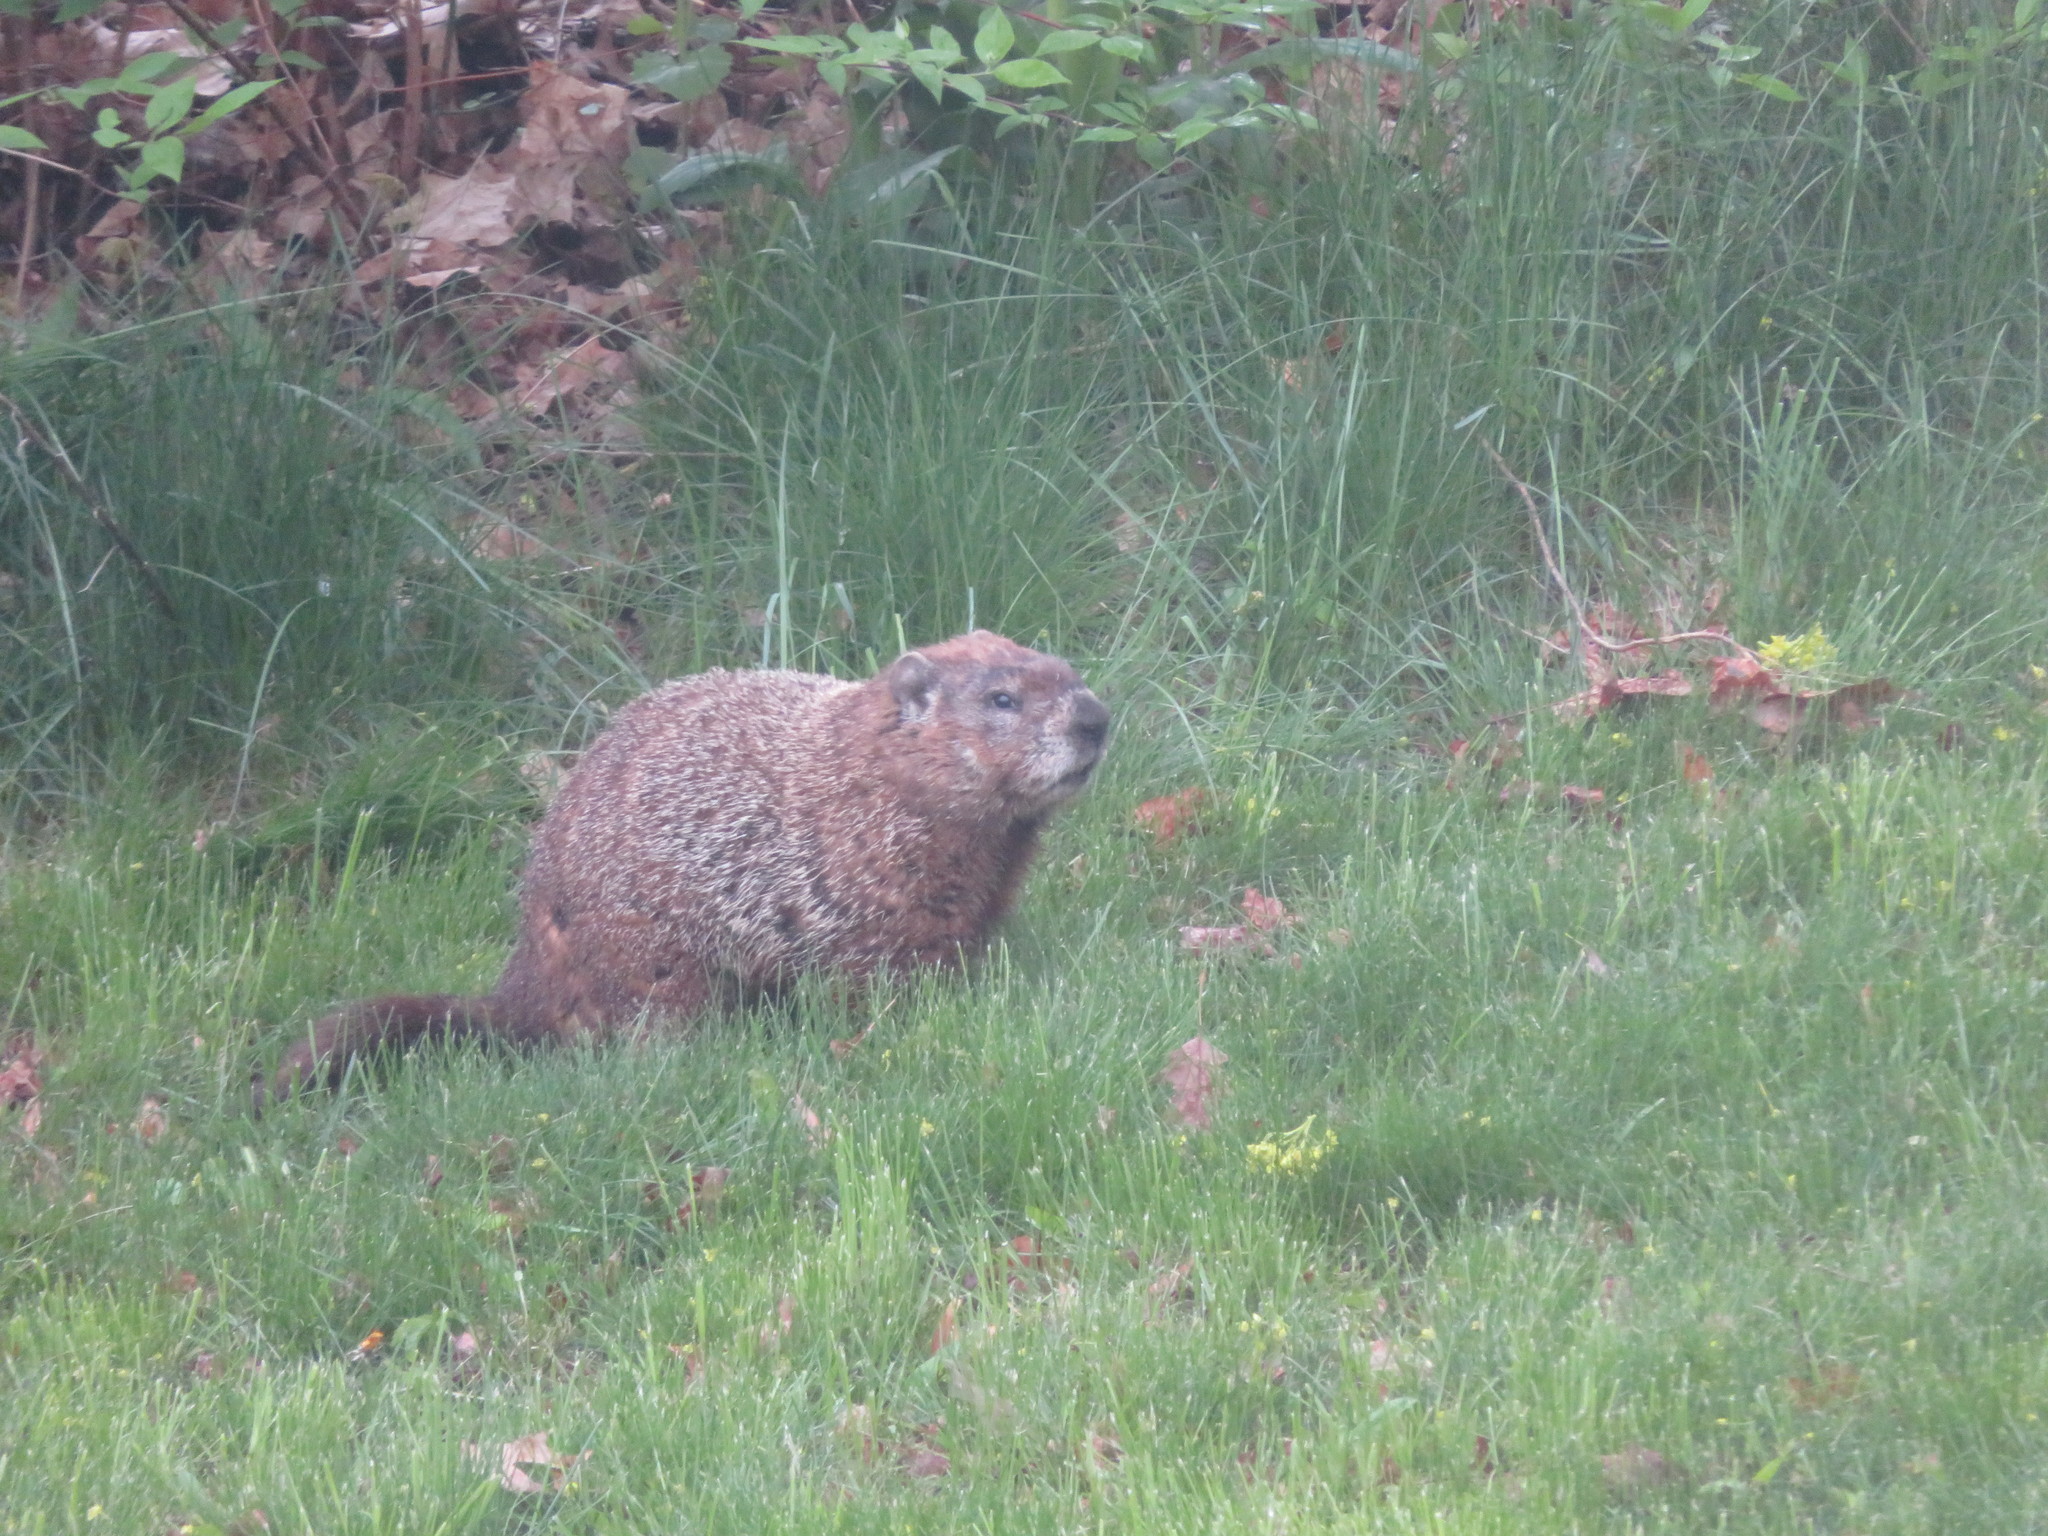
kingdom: Animalia
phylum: Chordata
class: Mammalia
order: Rodentia
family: Sciuridae
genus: Marmota
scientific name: Marmota monax
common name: Groundhog
